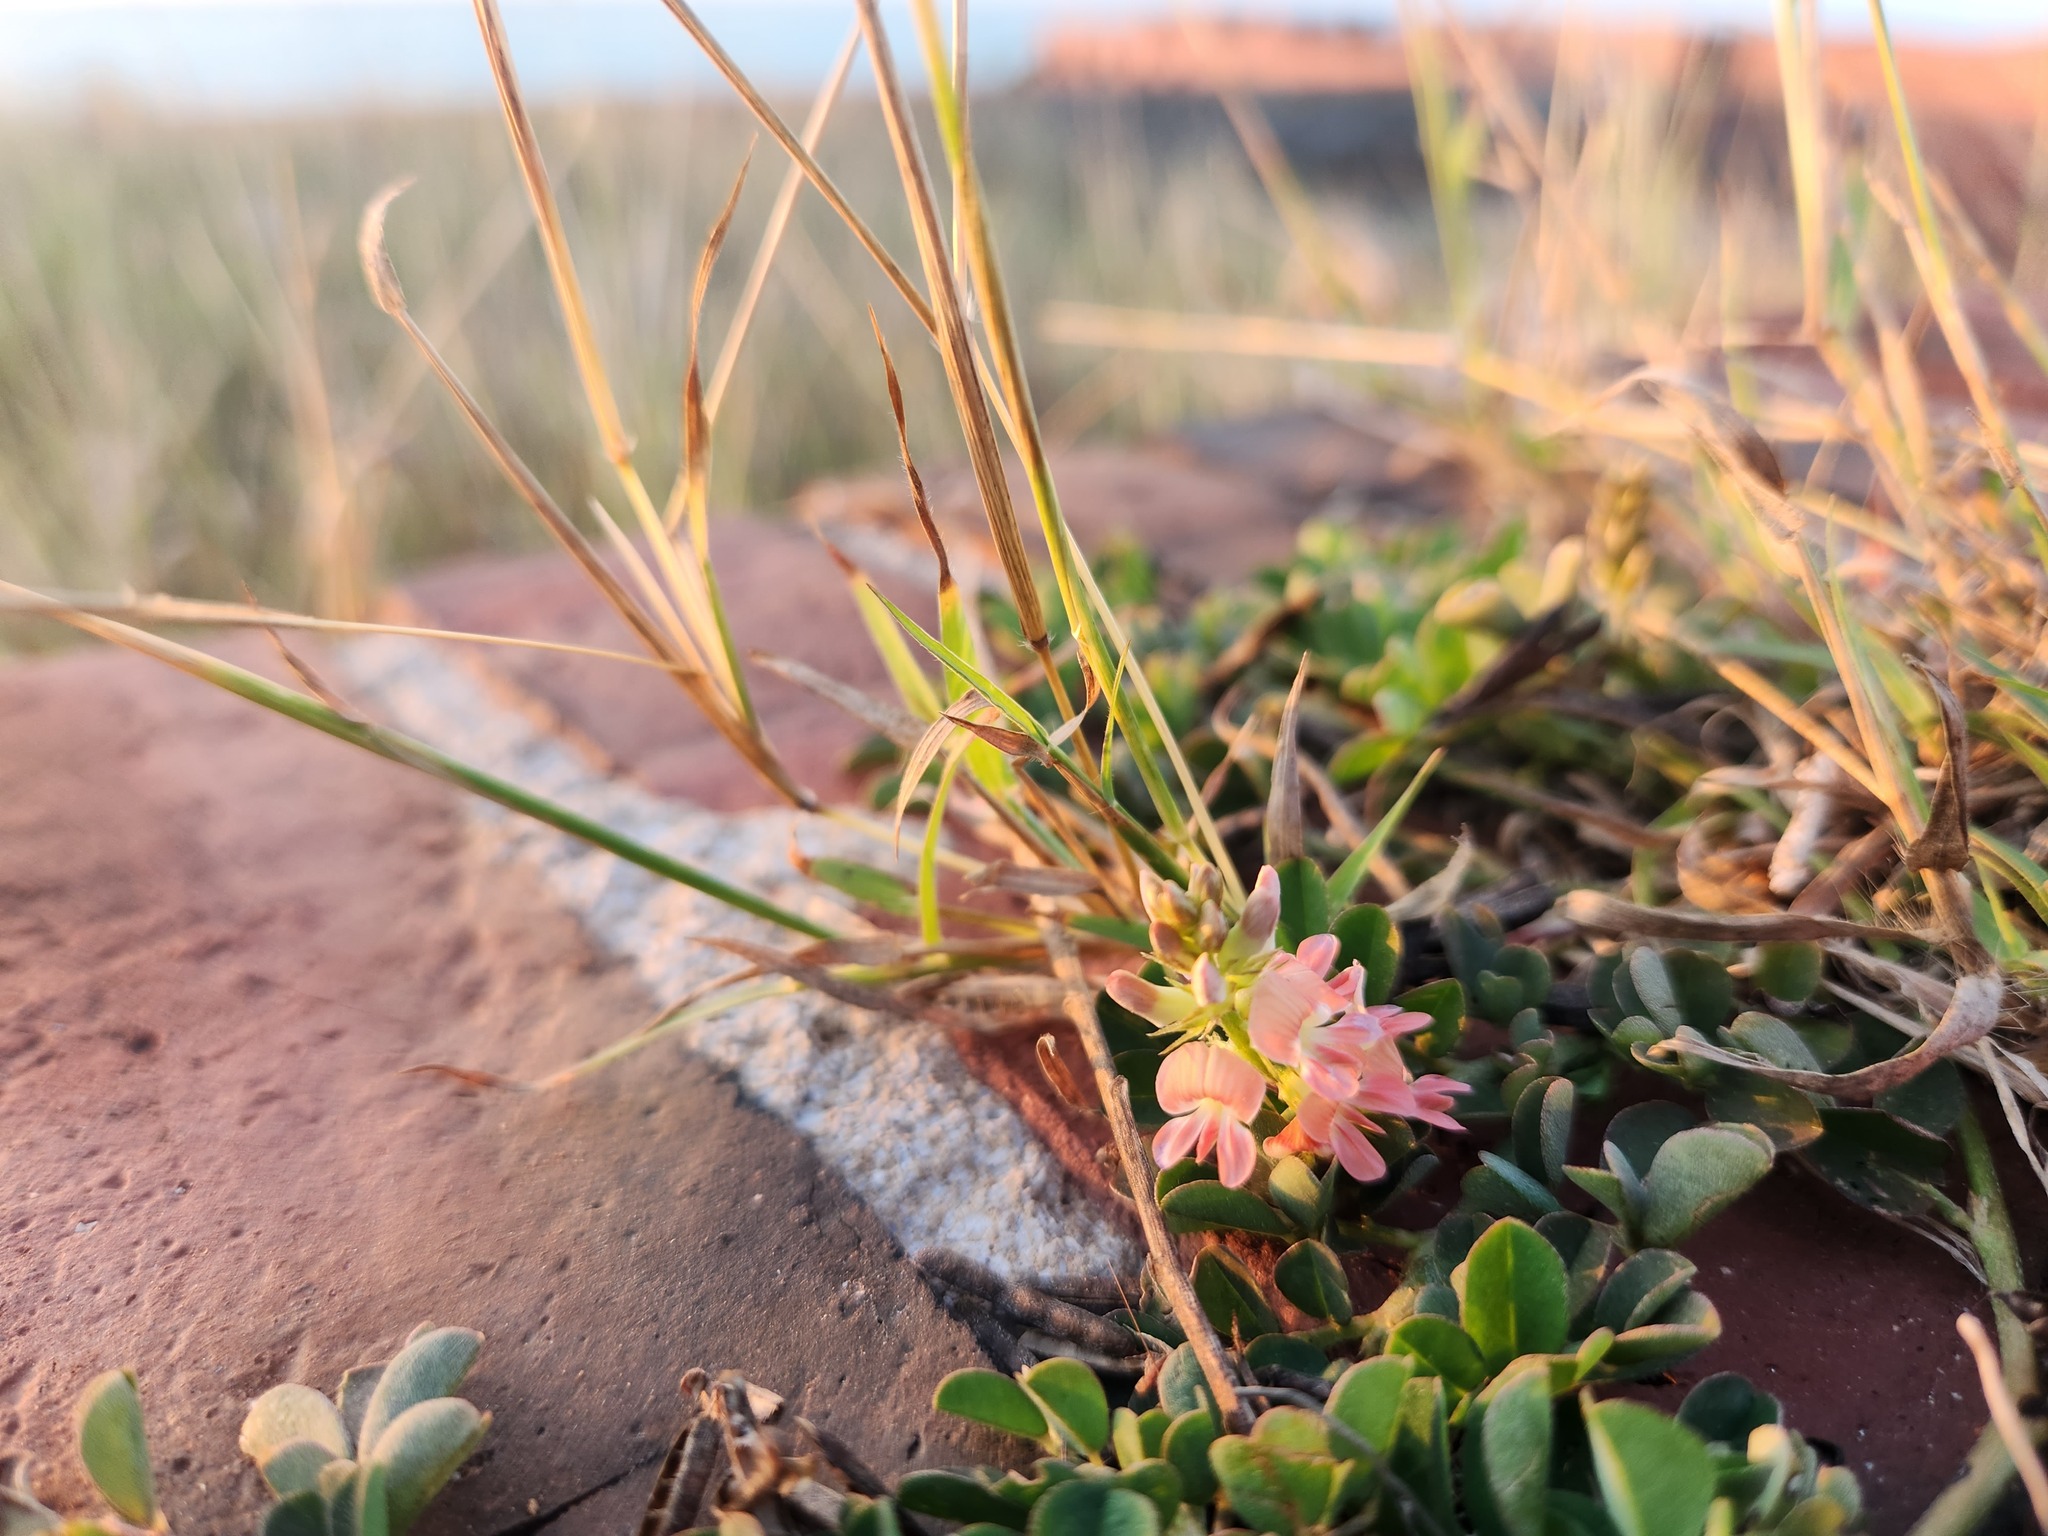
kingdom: Plantae
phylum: Tracheophyta
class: Magnoliopsida
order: Fabales
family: Fabaceae
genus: Indigofera
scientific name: Indigofera spicata
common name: Creeping indigo
